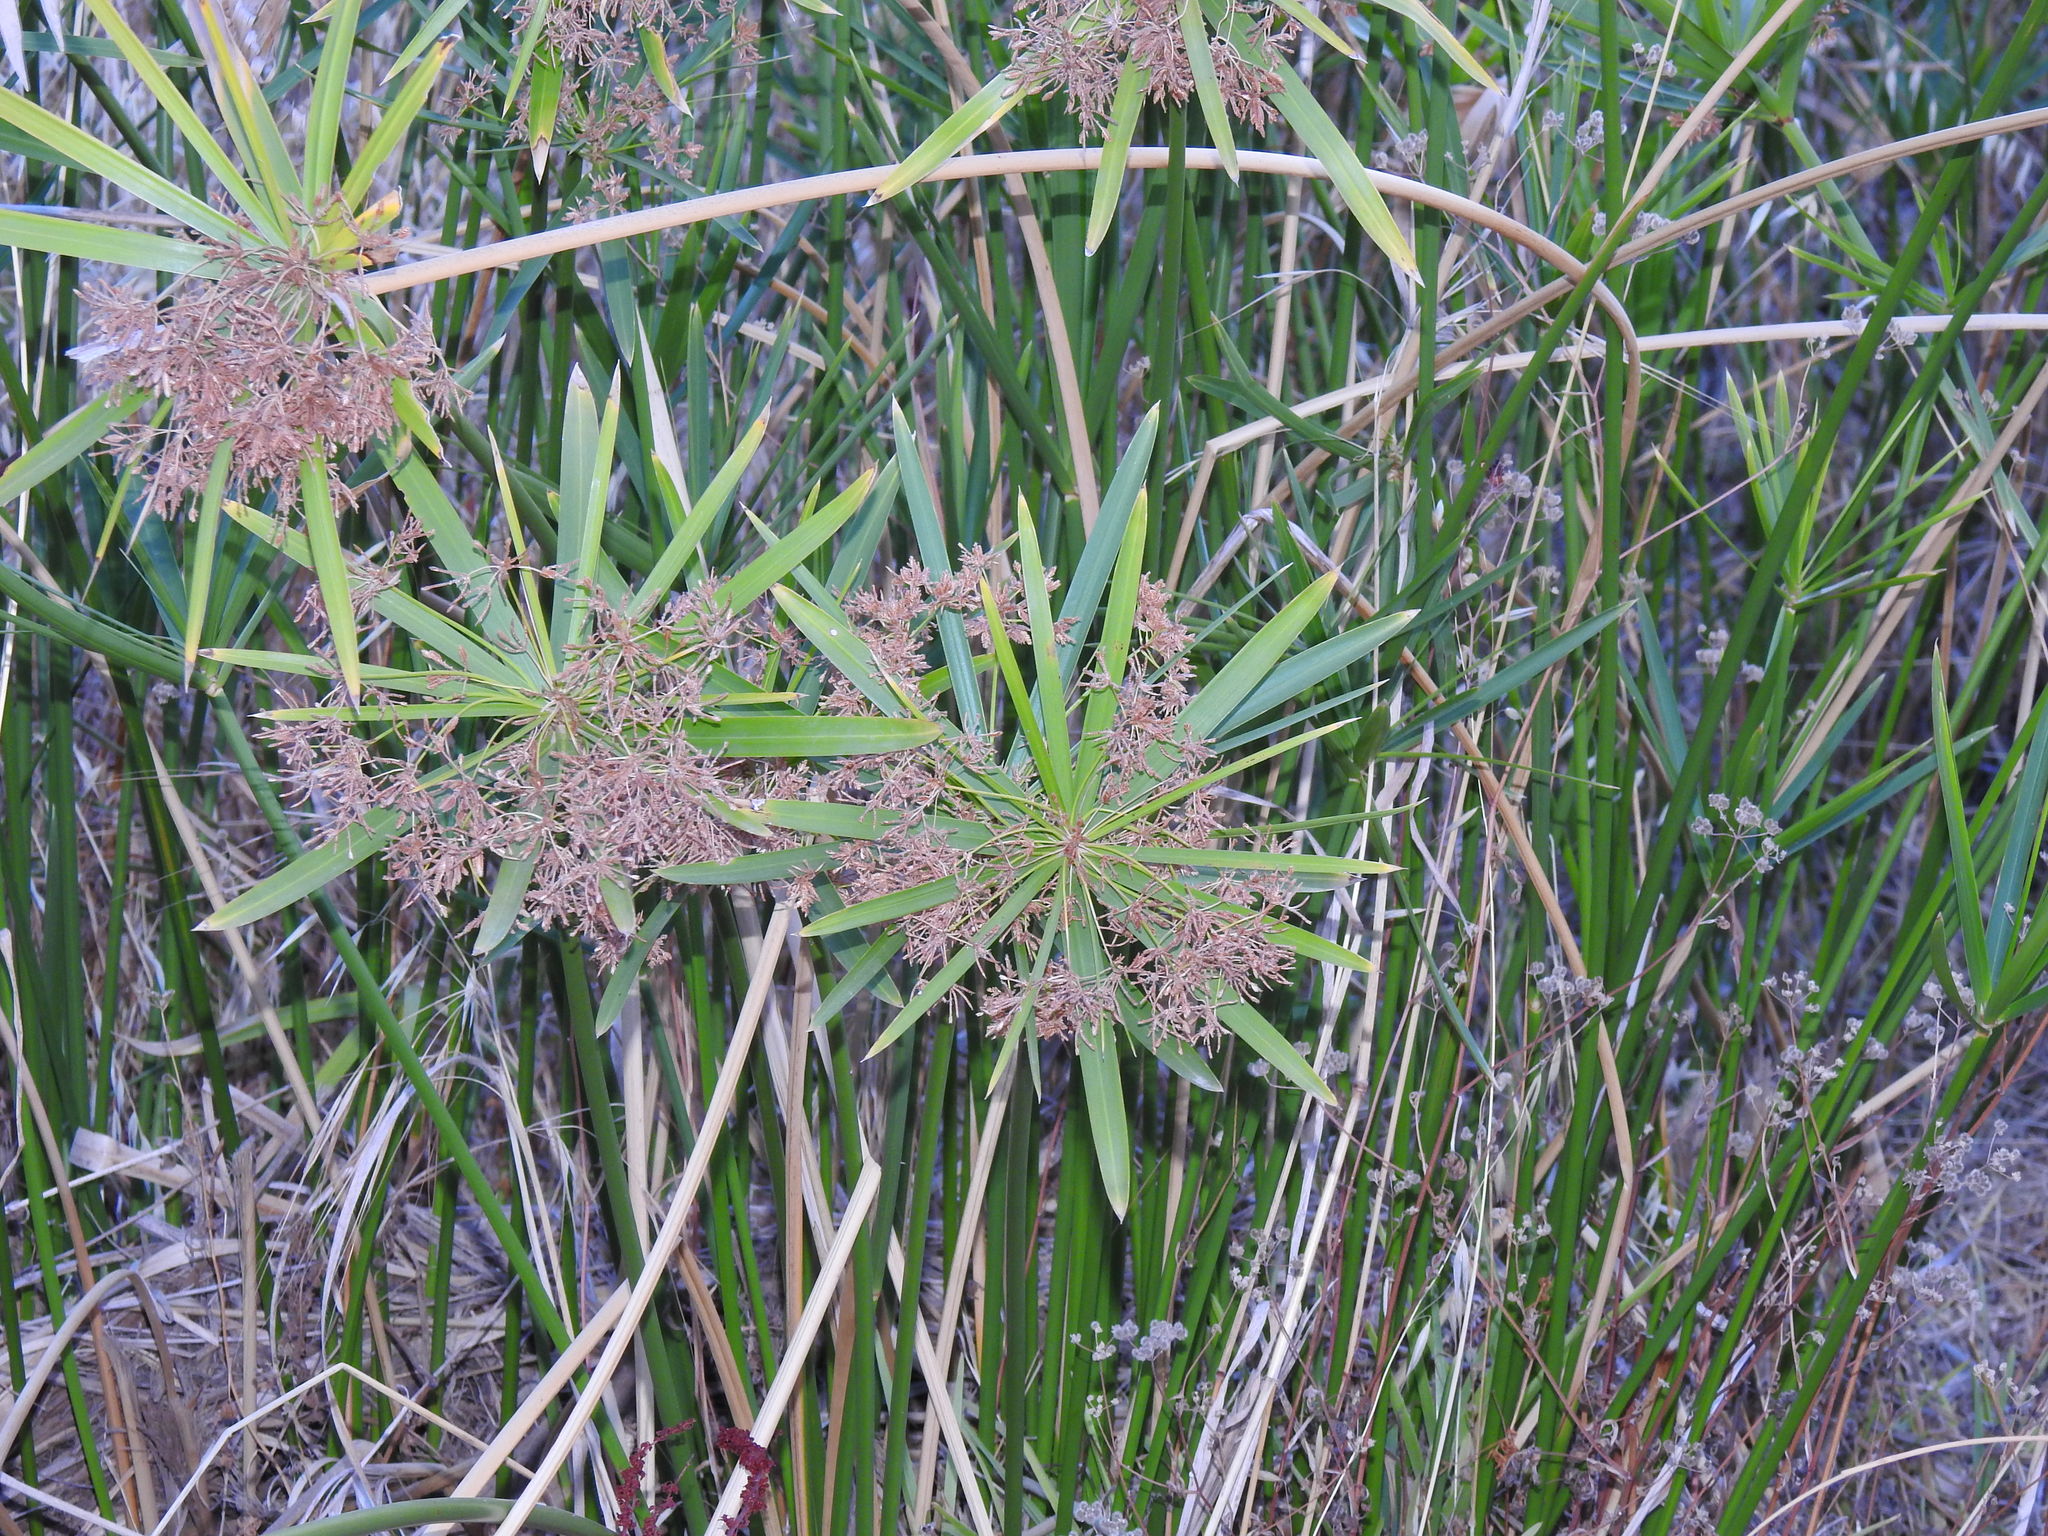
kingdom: Plantae
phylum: Tracheophyta
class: Liliopsida
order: Poales
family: Cyperaceae
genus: Cyperus
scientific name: Cyperus alternifolius
